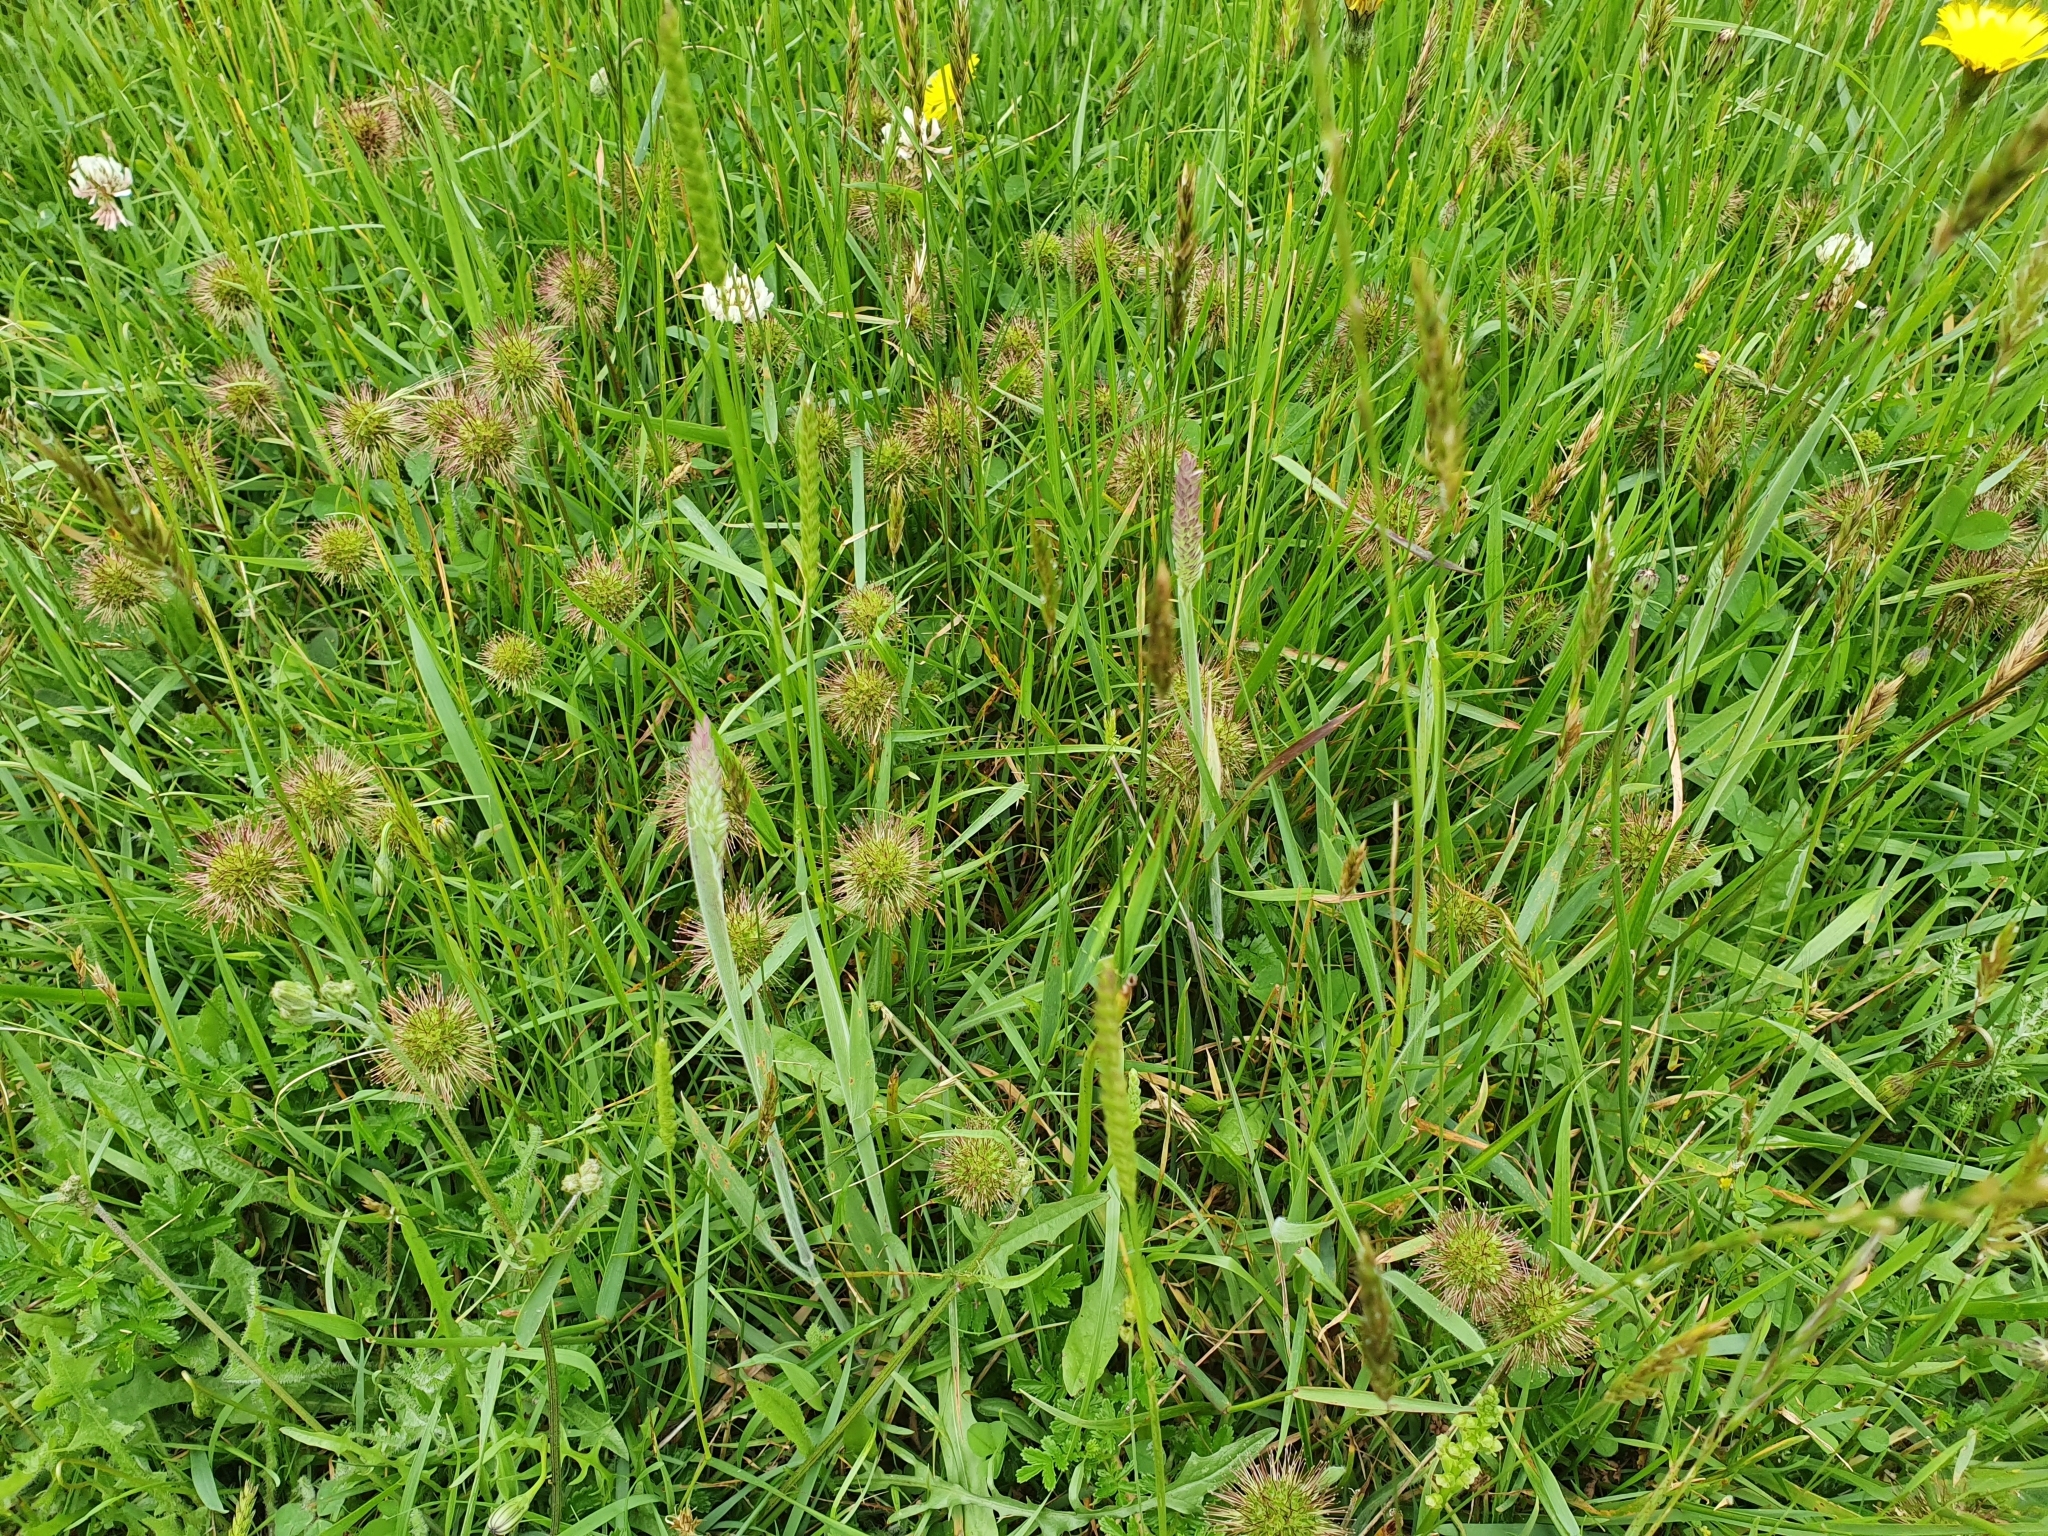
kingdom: Plantae
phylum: Tracheophyta
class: Magnoliopsida
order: Rosales
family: Rosaceae
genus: Acaena
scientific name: Acaena pallida
